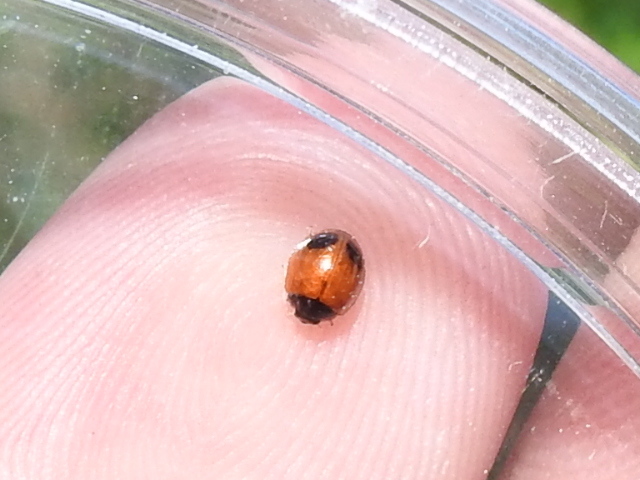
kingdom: Animalia
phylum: Arthropoda
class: Insecta
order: Coleoptera
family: Coccinellidae
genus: Exochomus
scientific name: Exochomus childreni
